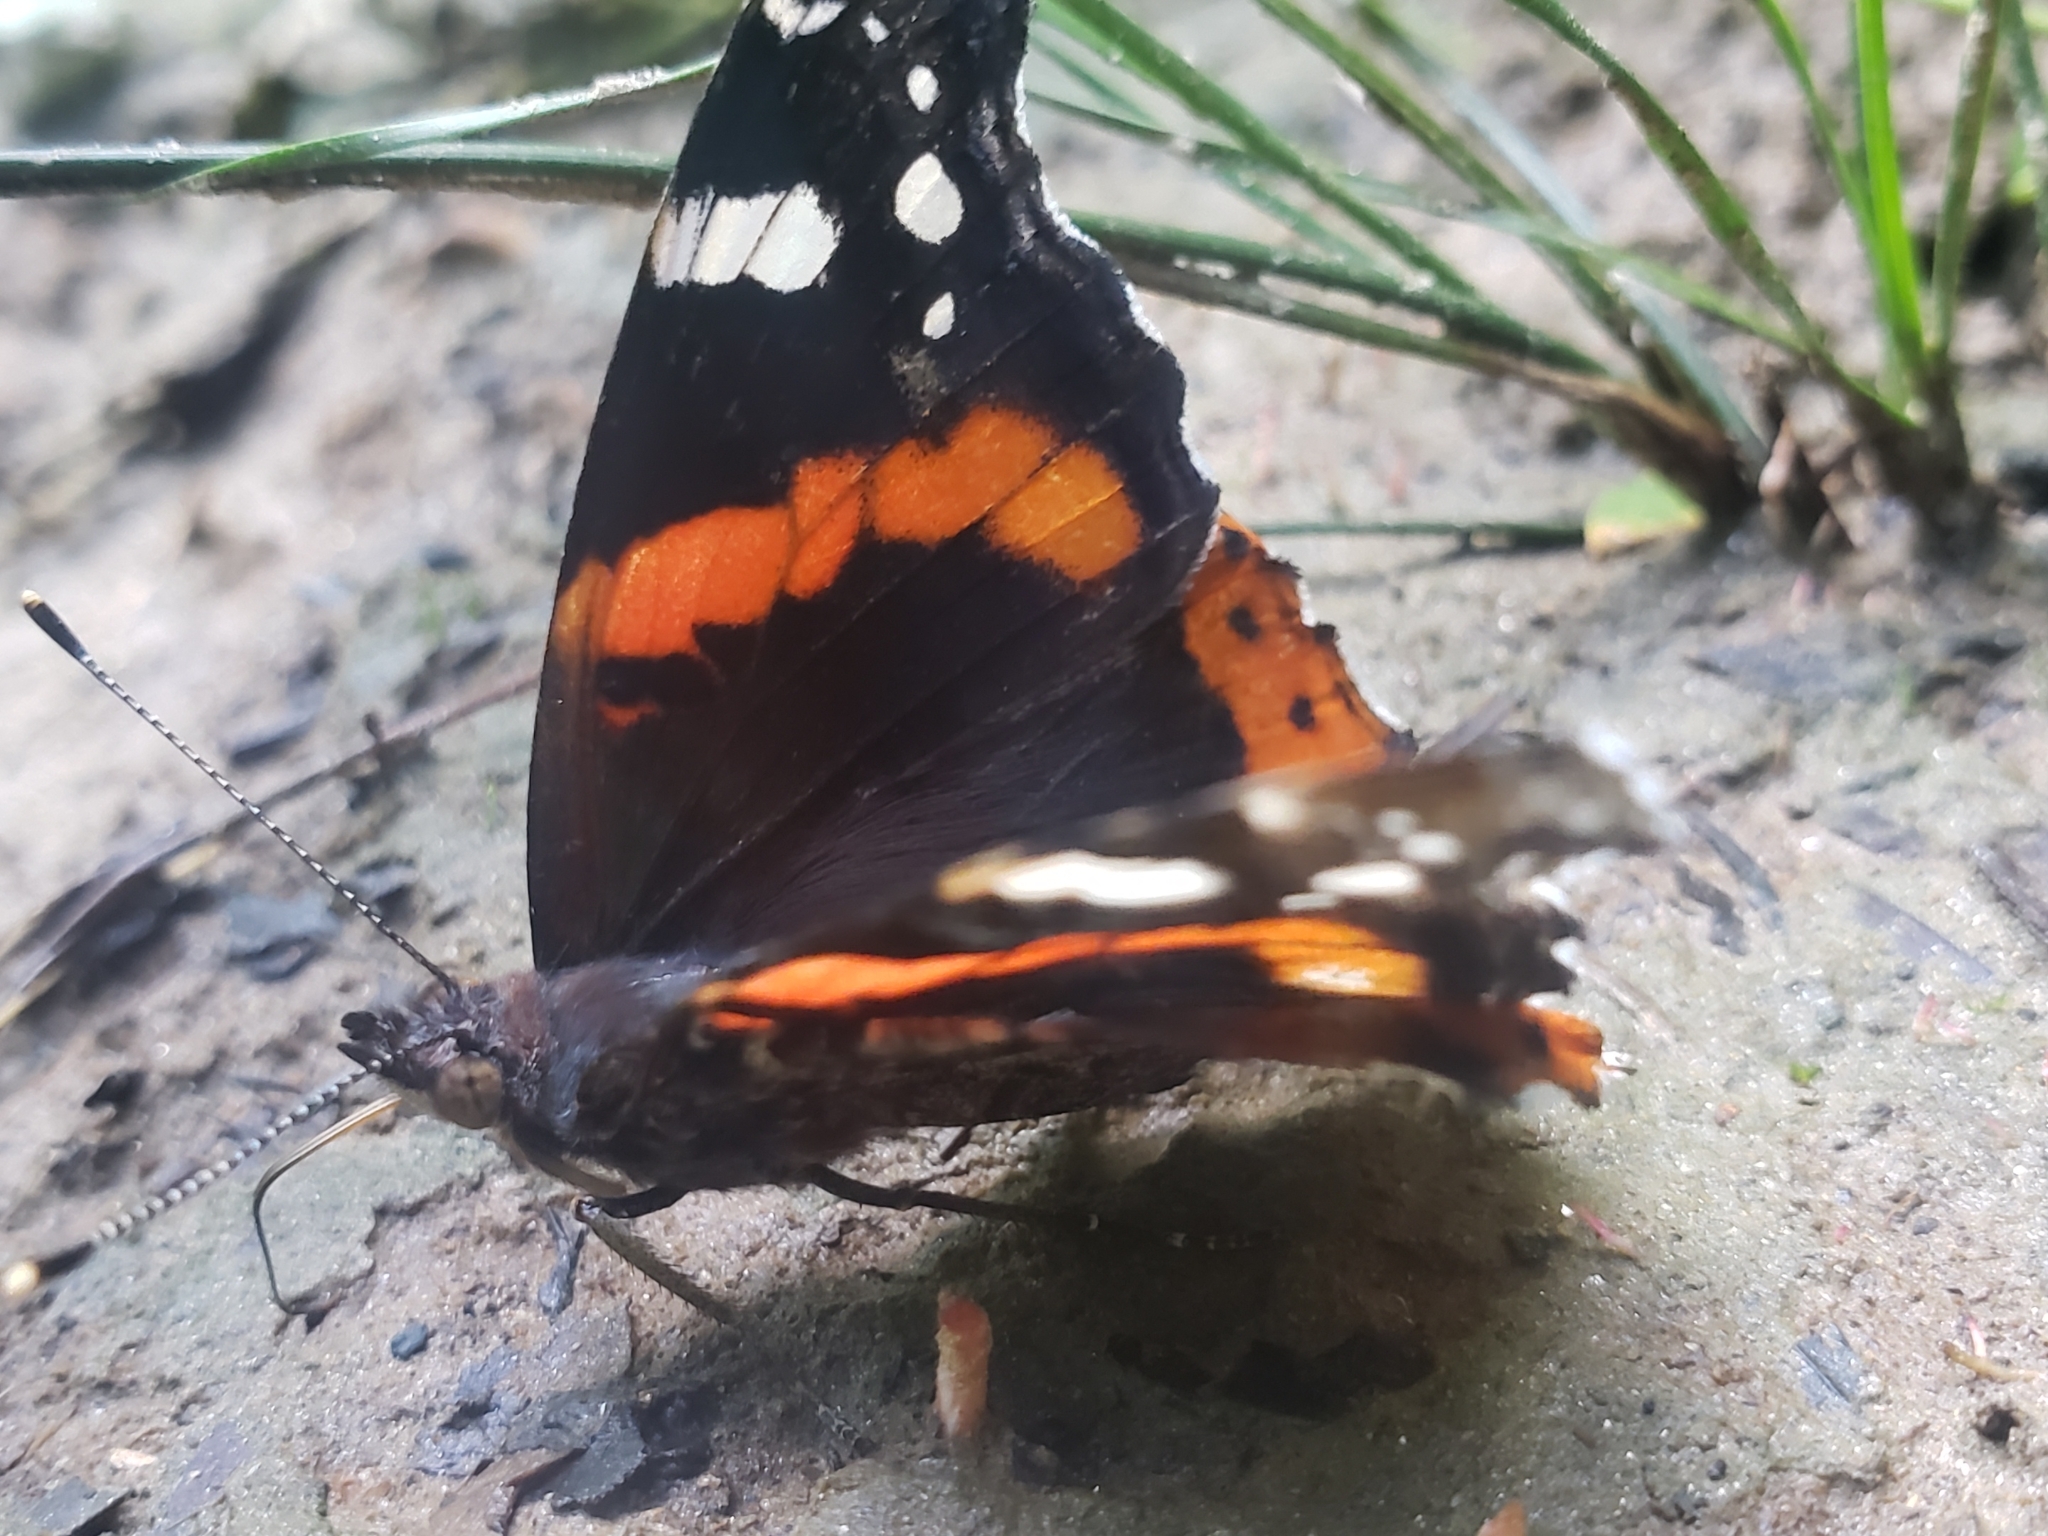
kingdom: Animalia
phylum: Arthropoda
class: Insecta
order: Lepidoptera
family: Nymphalidae
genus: Vanessa
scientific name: Vanessa atalanta
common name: Red admiral
